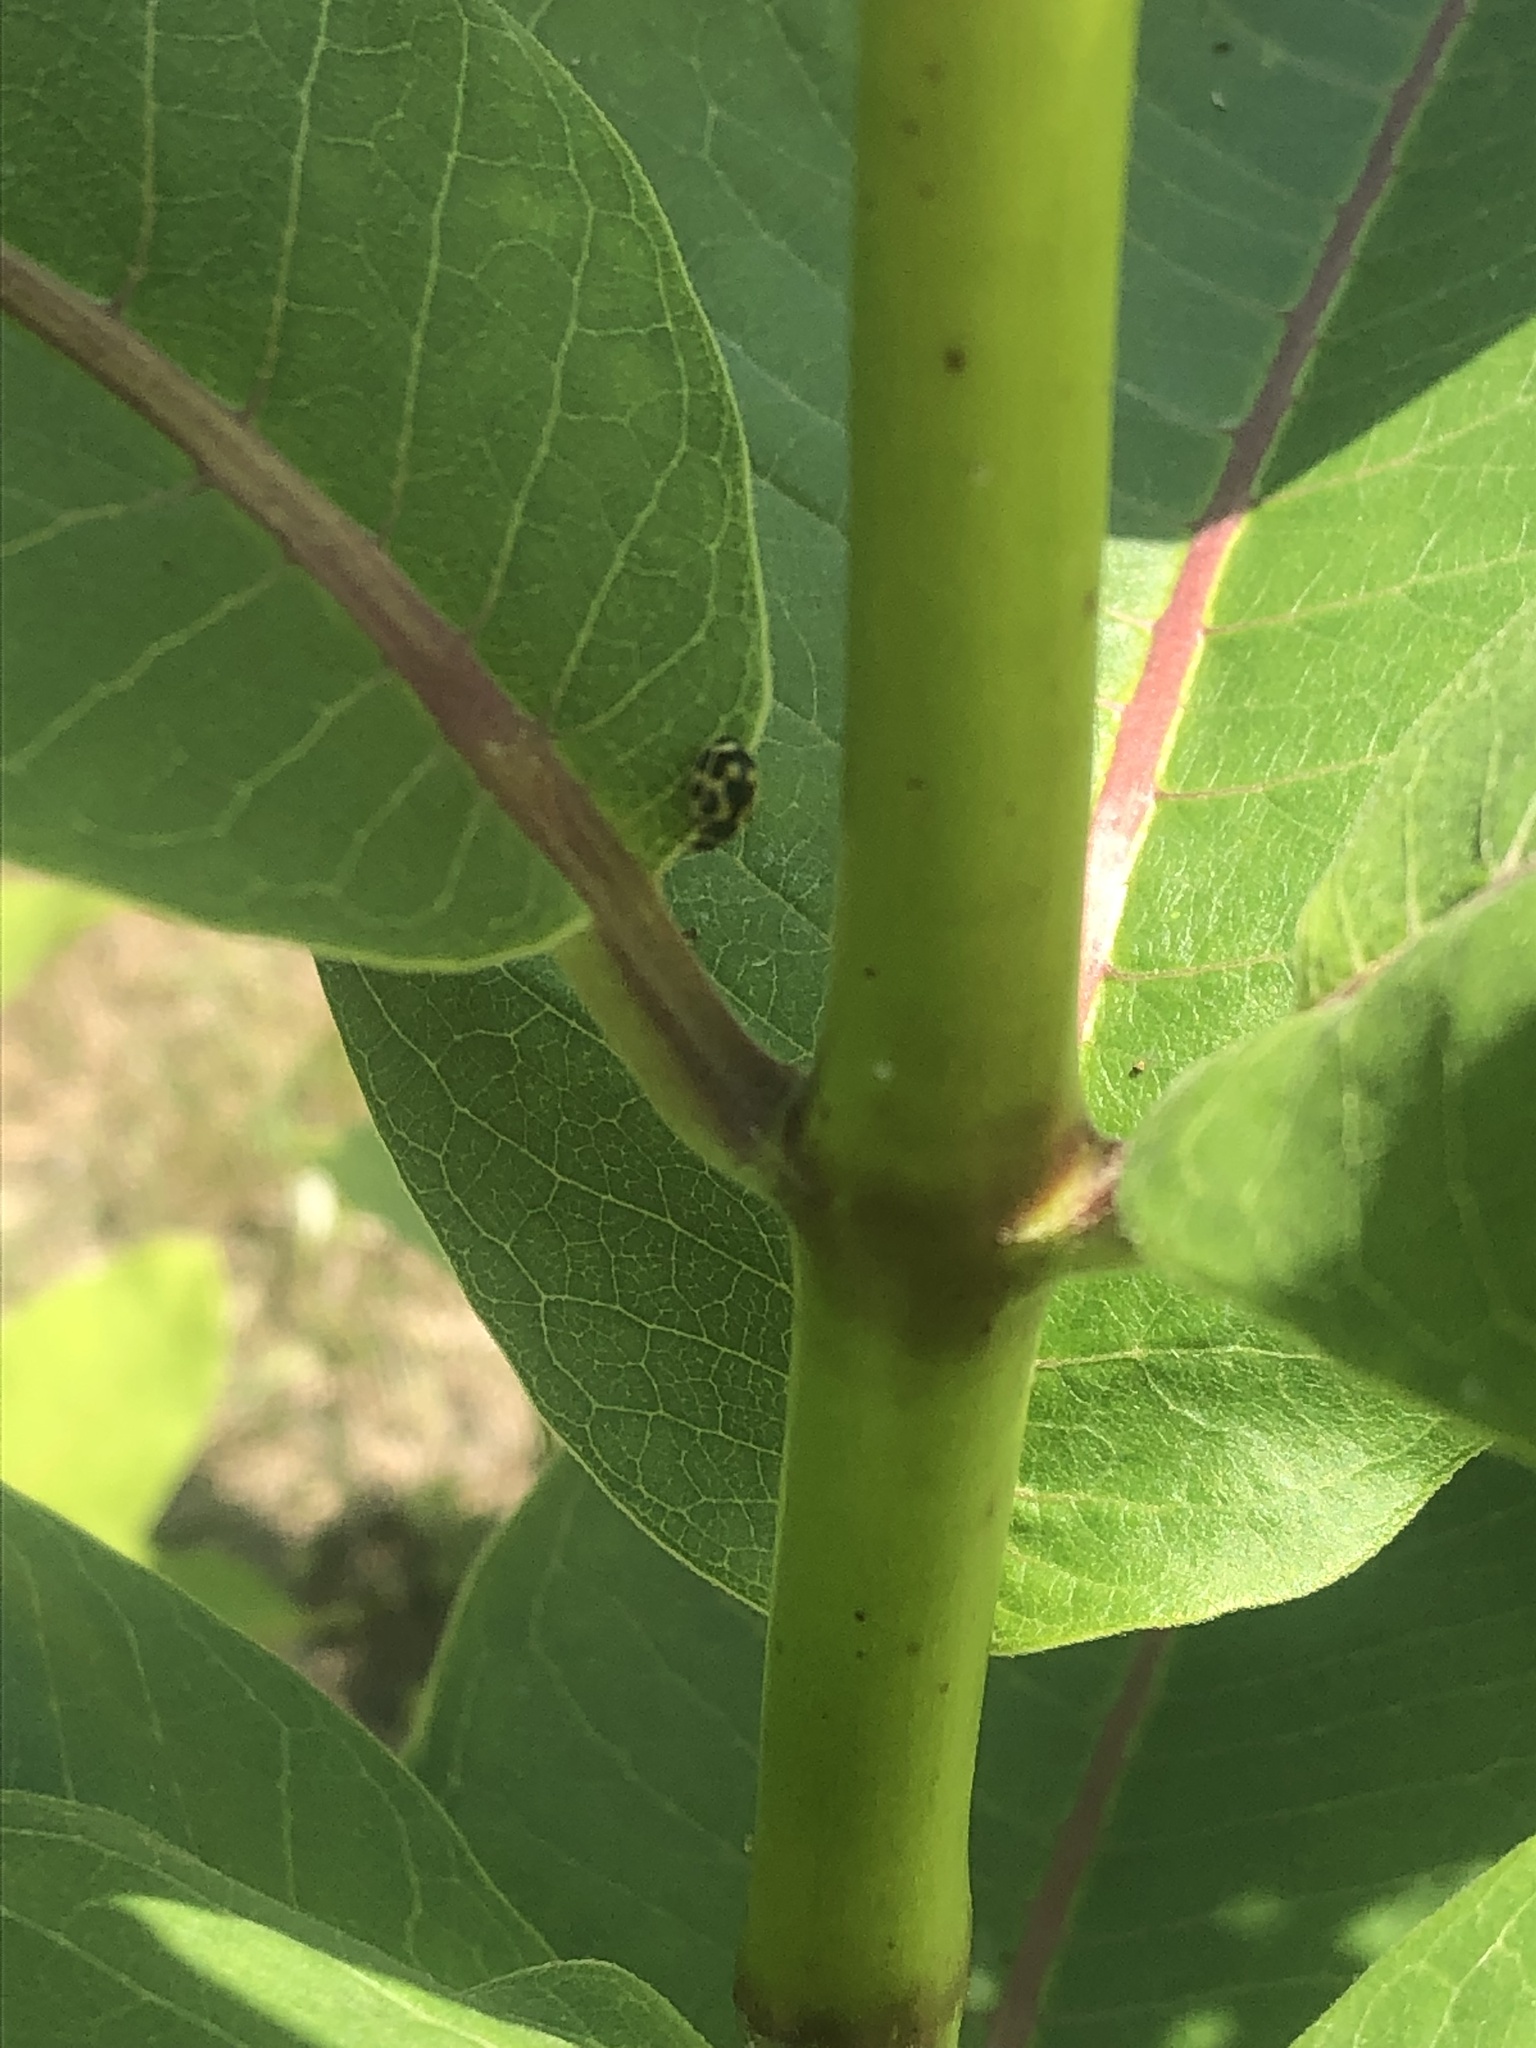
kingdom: Animalia
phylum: Arthropoda
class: Insecta
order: Coleoptera
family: Coccinellidae
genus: Propylaea
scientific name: Propylaea quatuordecimpunctata
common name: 14-spotted ladybird beetle
